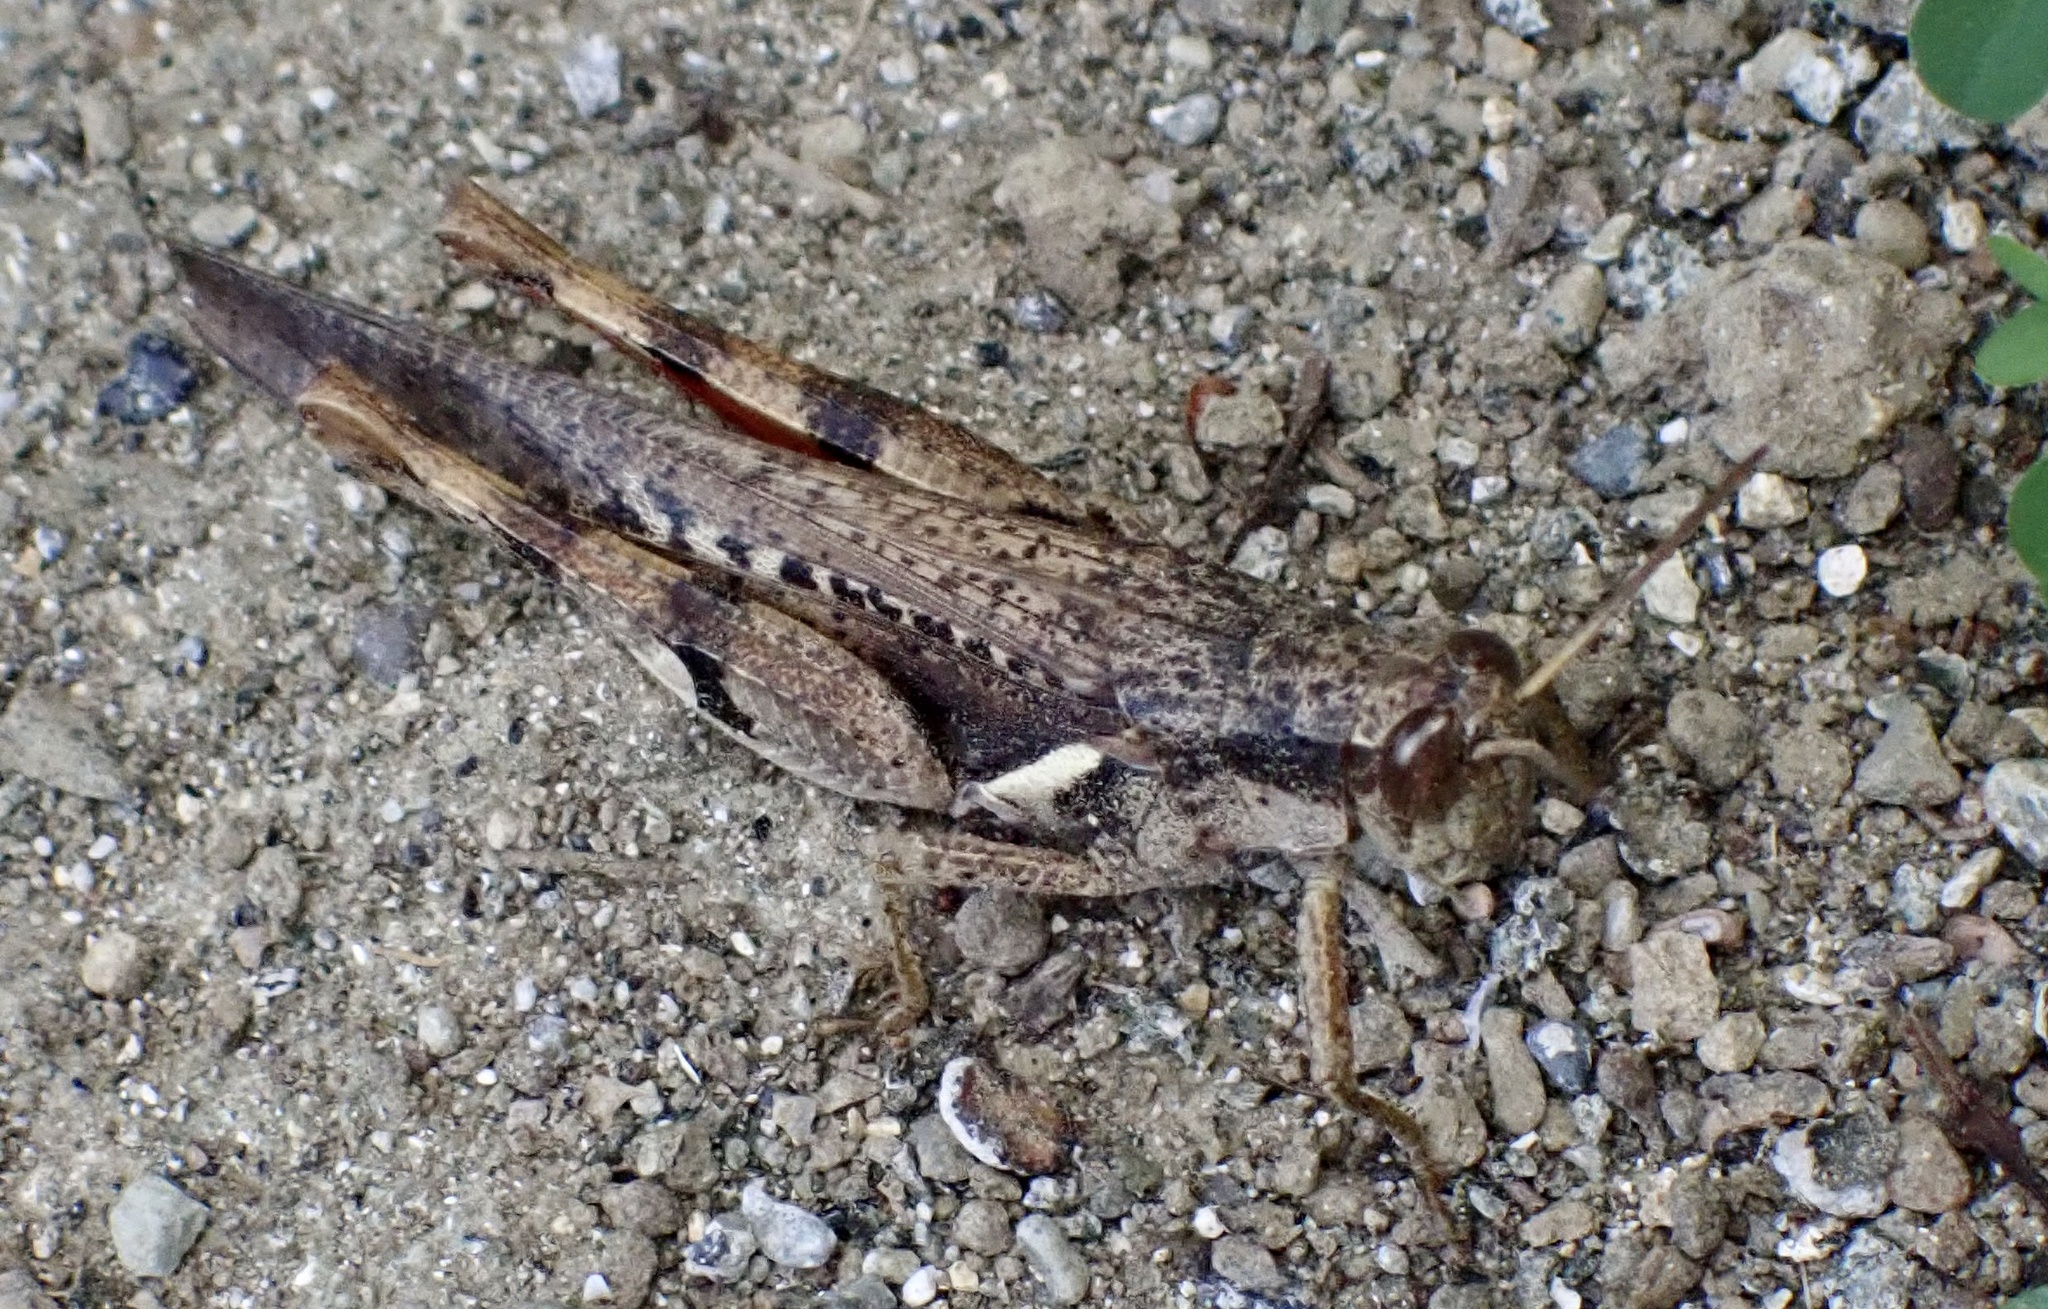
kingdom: Animalia
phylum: Arthropoda
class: Insecta
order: Orthoptera
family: Acrididae
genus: Stenocatantops
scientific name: Stenocatantops angustifrons
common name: Common tropical sharptail
